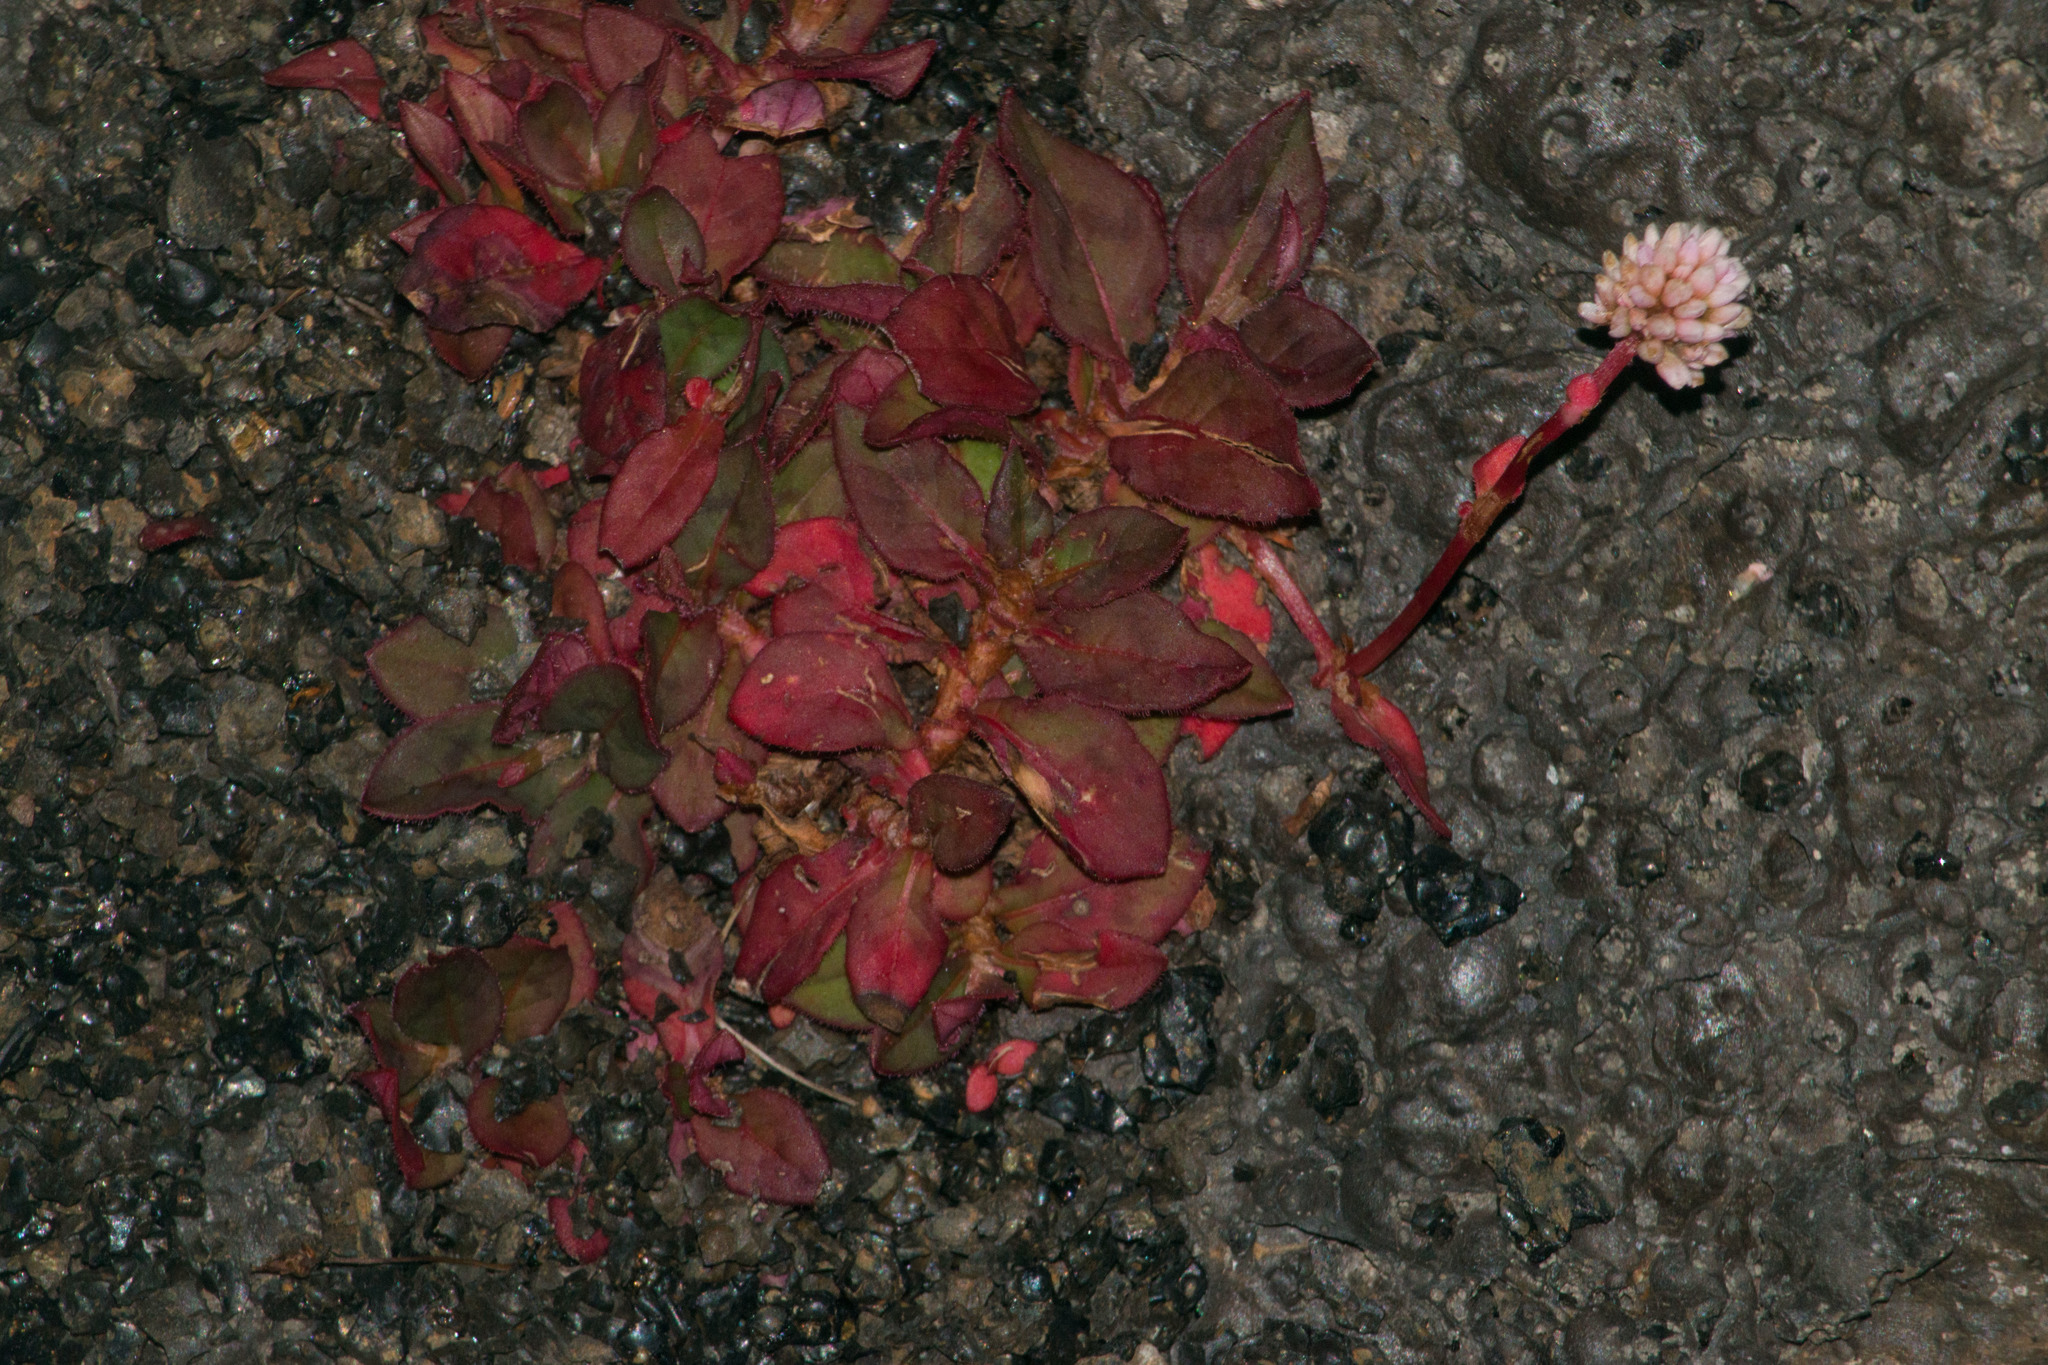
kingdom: Plantae
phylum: Tracheophyta
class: Magnoliopsida
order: Caryophyllales
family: Polygonaceae
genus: Persicaria
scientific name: Persicaria capitata
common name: Pinkhead smartweed
